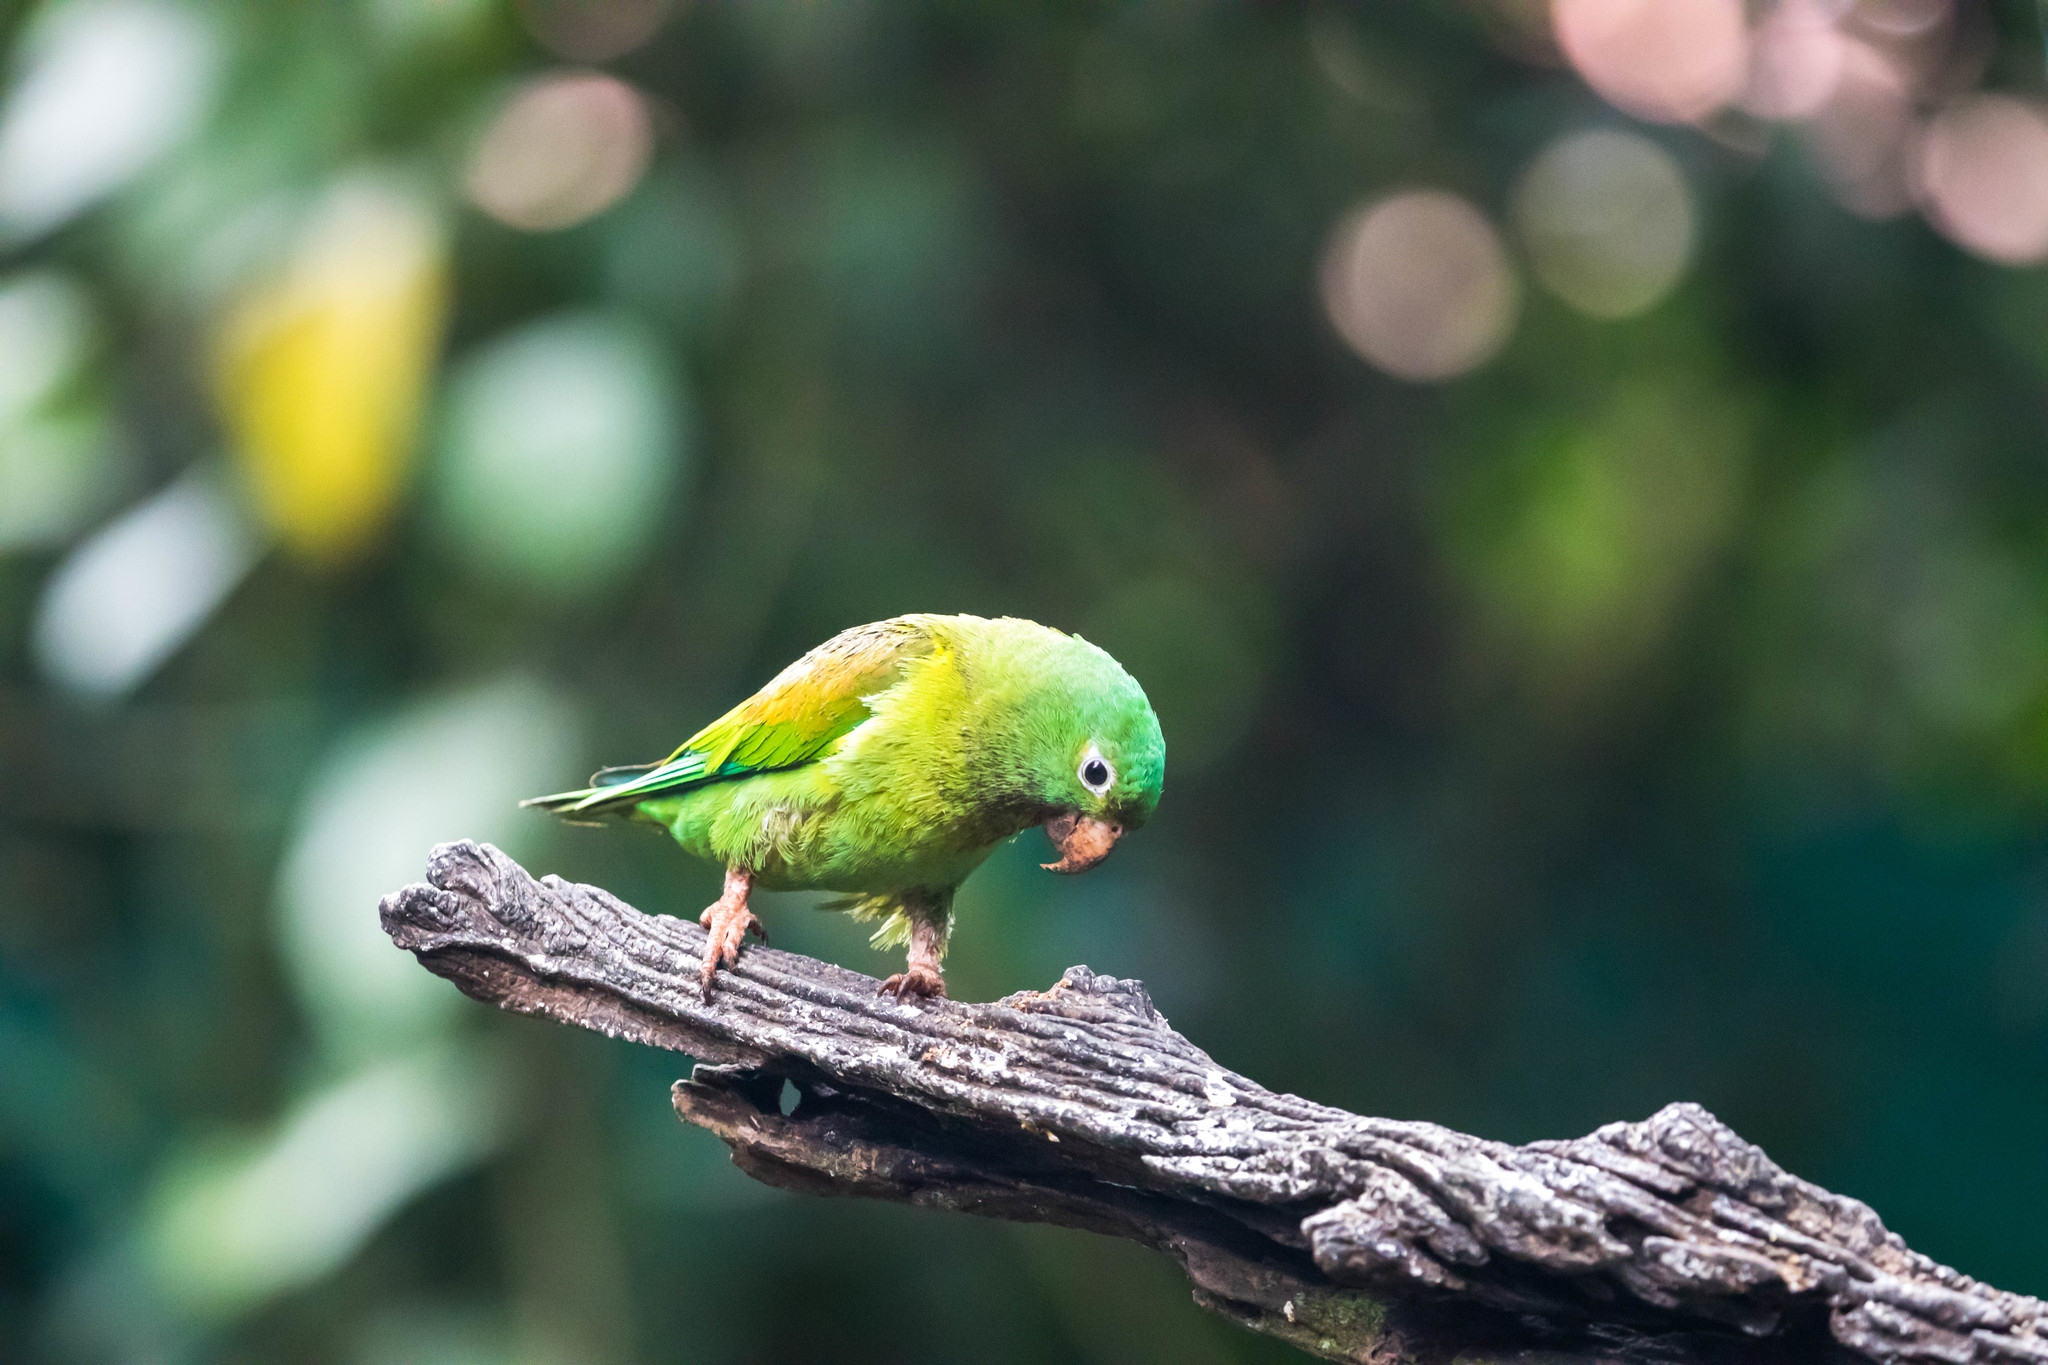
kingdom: Animalia
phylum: Chordata
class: Aves
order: Psittaciformes
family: Psittacidae
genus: Brotogeris
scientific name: Brotogeris jugularis
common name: Orange-chinned parakeet
